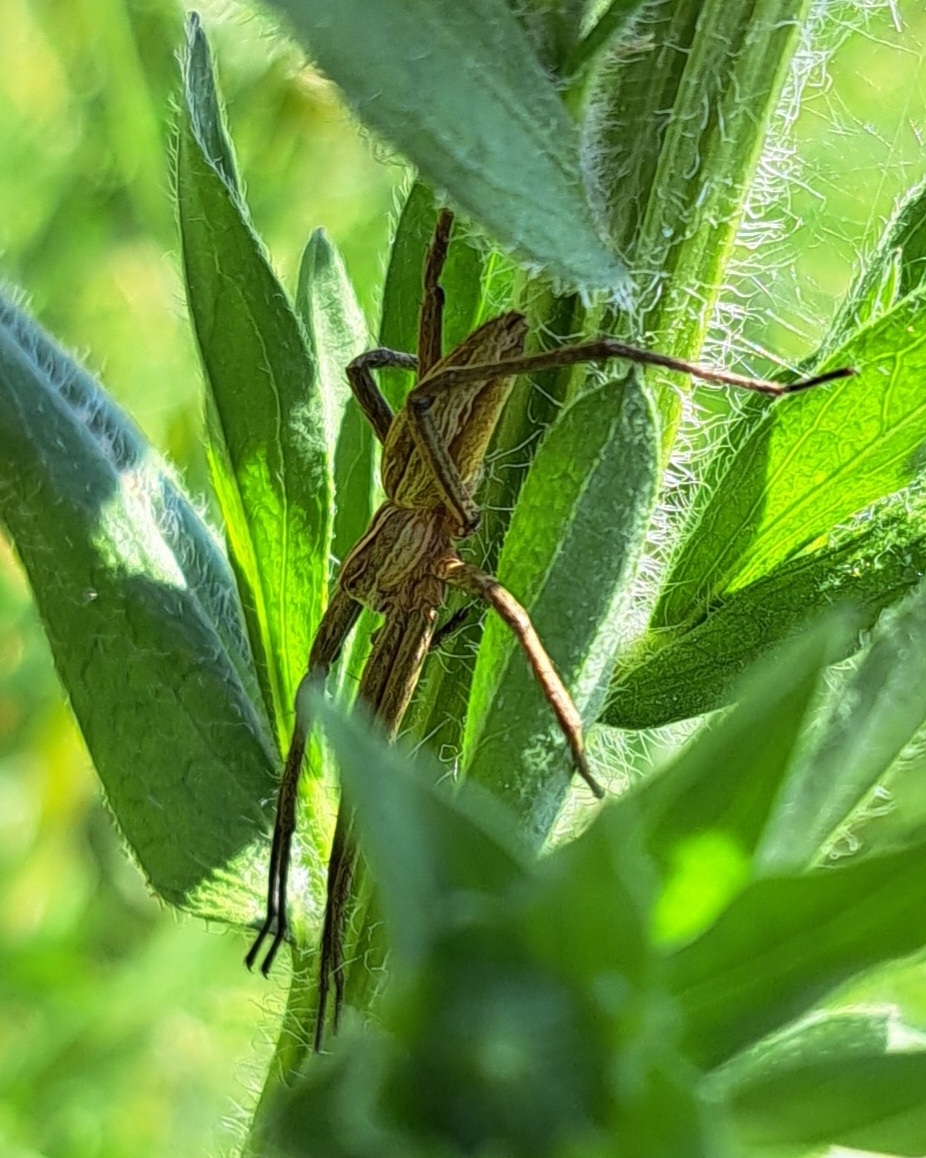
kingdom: Animalia
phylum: Arthropoda
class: Arachnida
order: Araneae
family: Pisauridae
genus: Pisaura
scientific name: Pisaura mirabilis
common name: Tent spider
